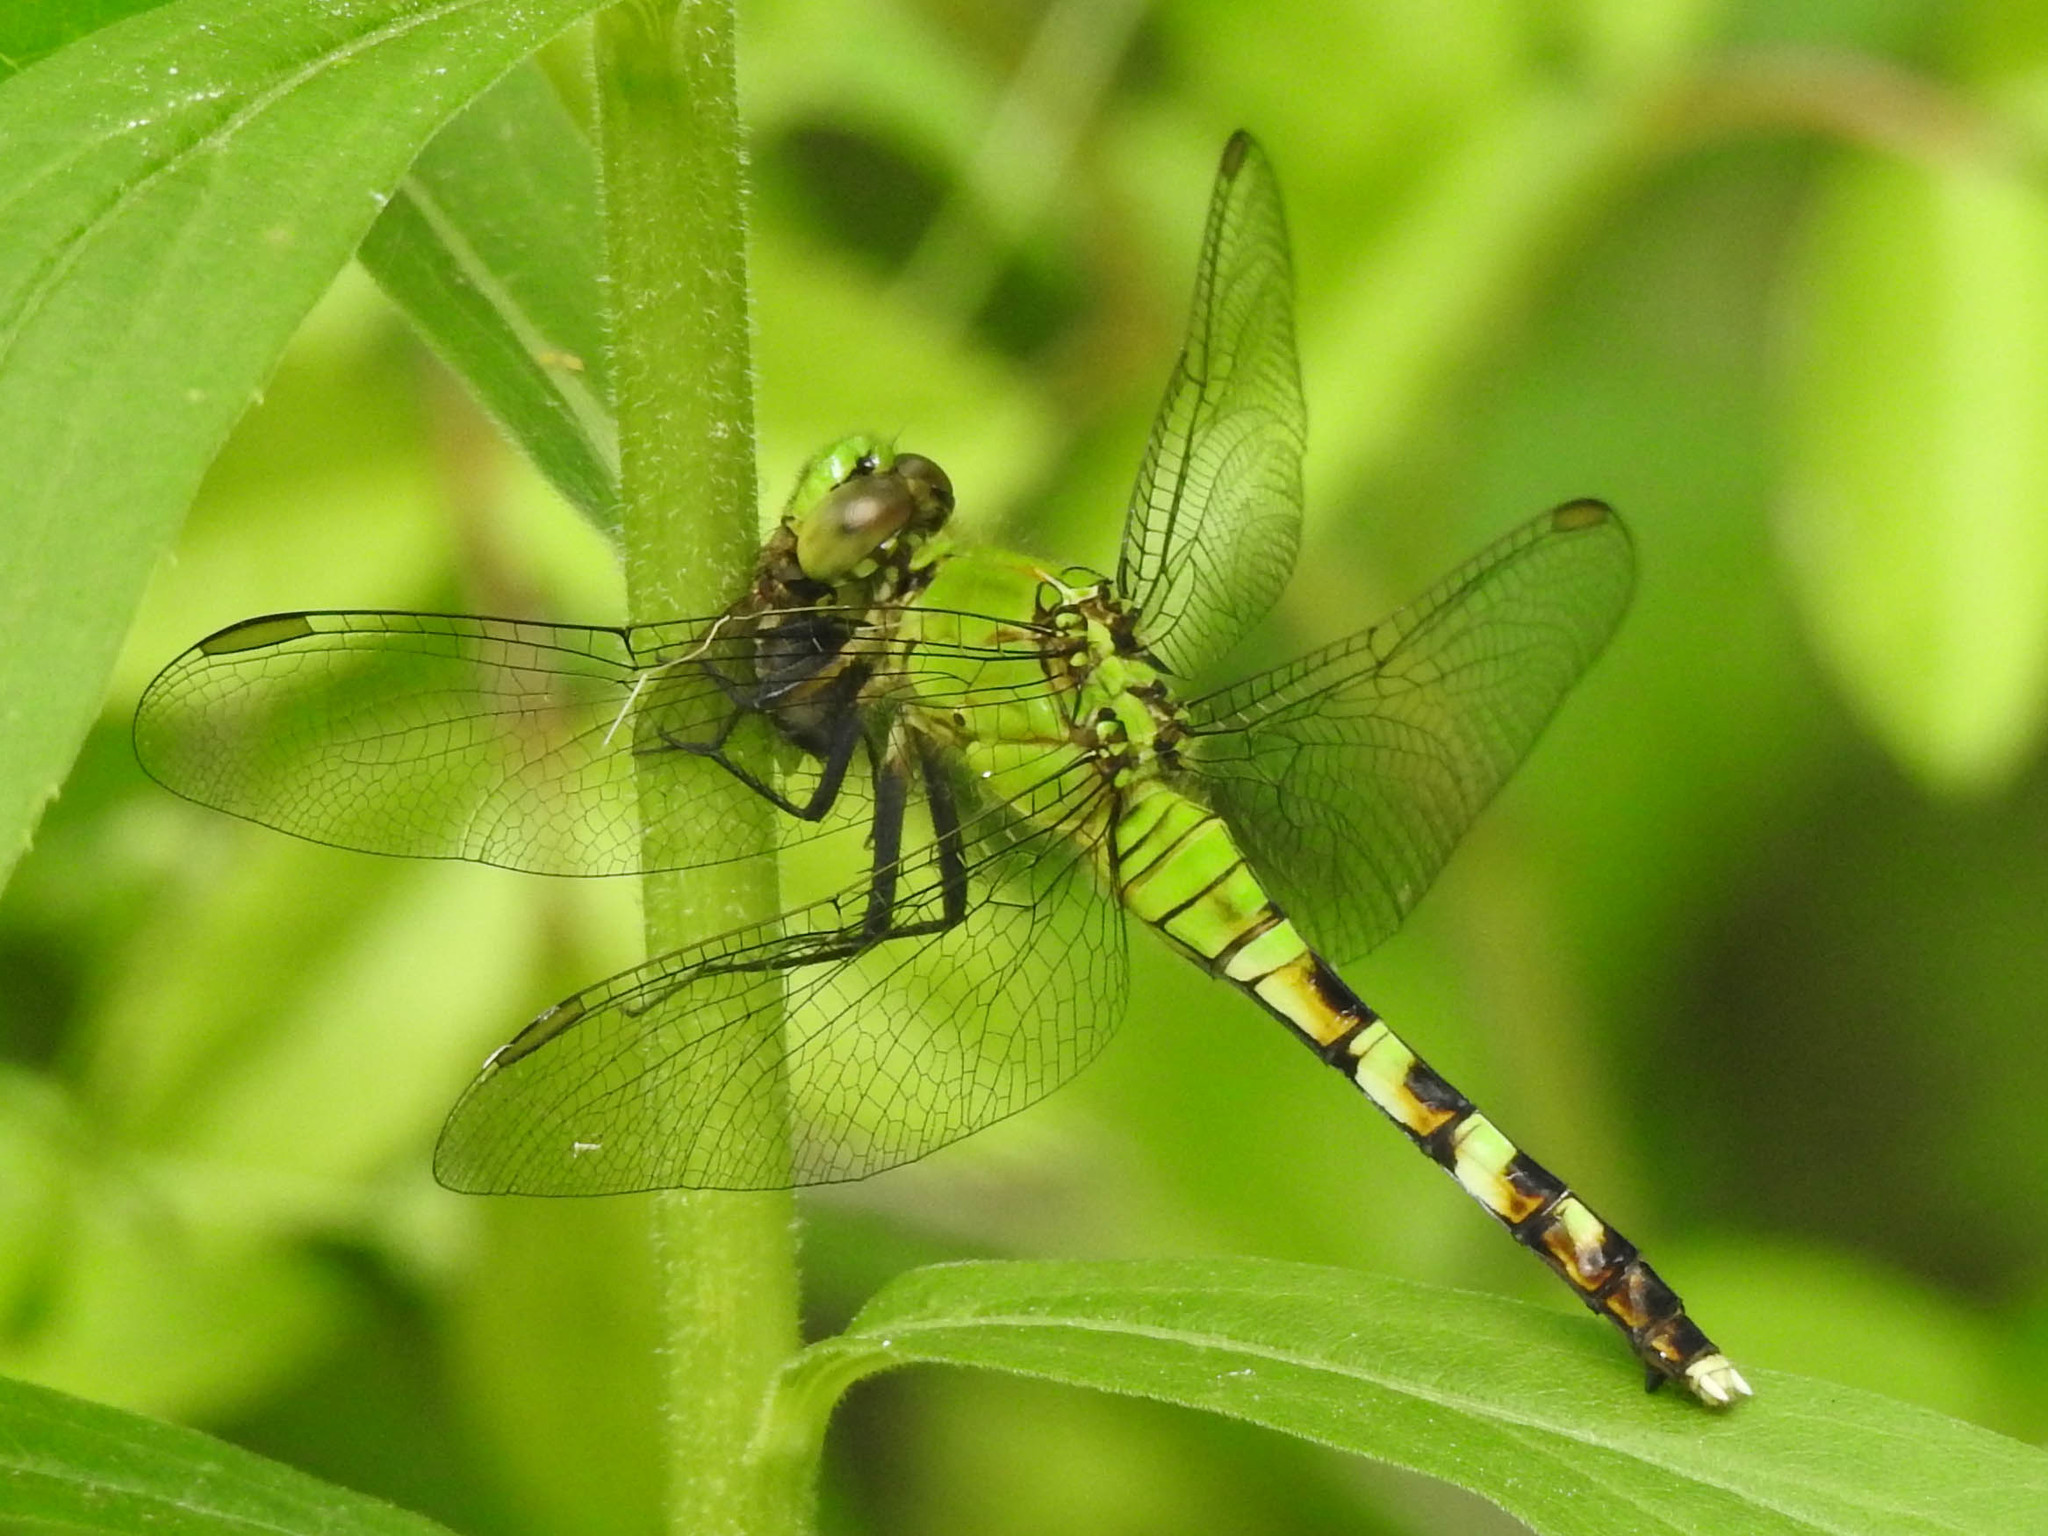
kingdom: Animalia
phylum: Arthropoda
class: Insecta
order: Odonata
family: Libellulidae
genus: Erythemis
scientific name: Erythemis simplicicollis
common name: Eastern pondhawk
